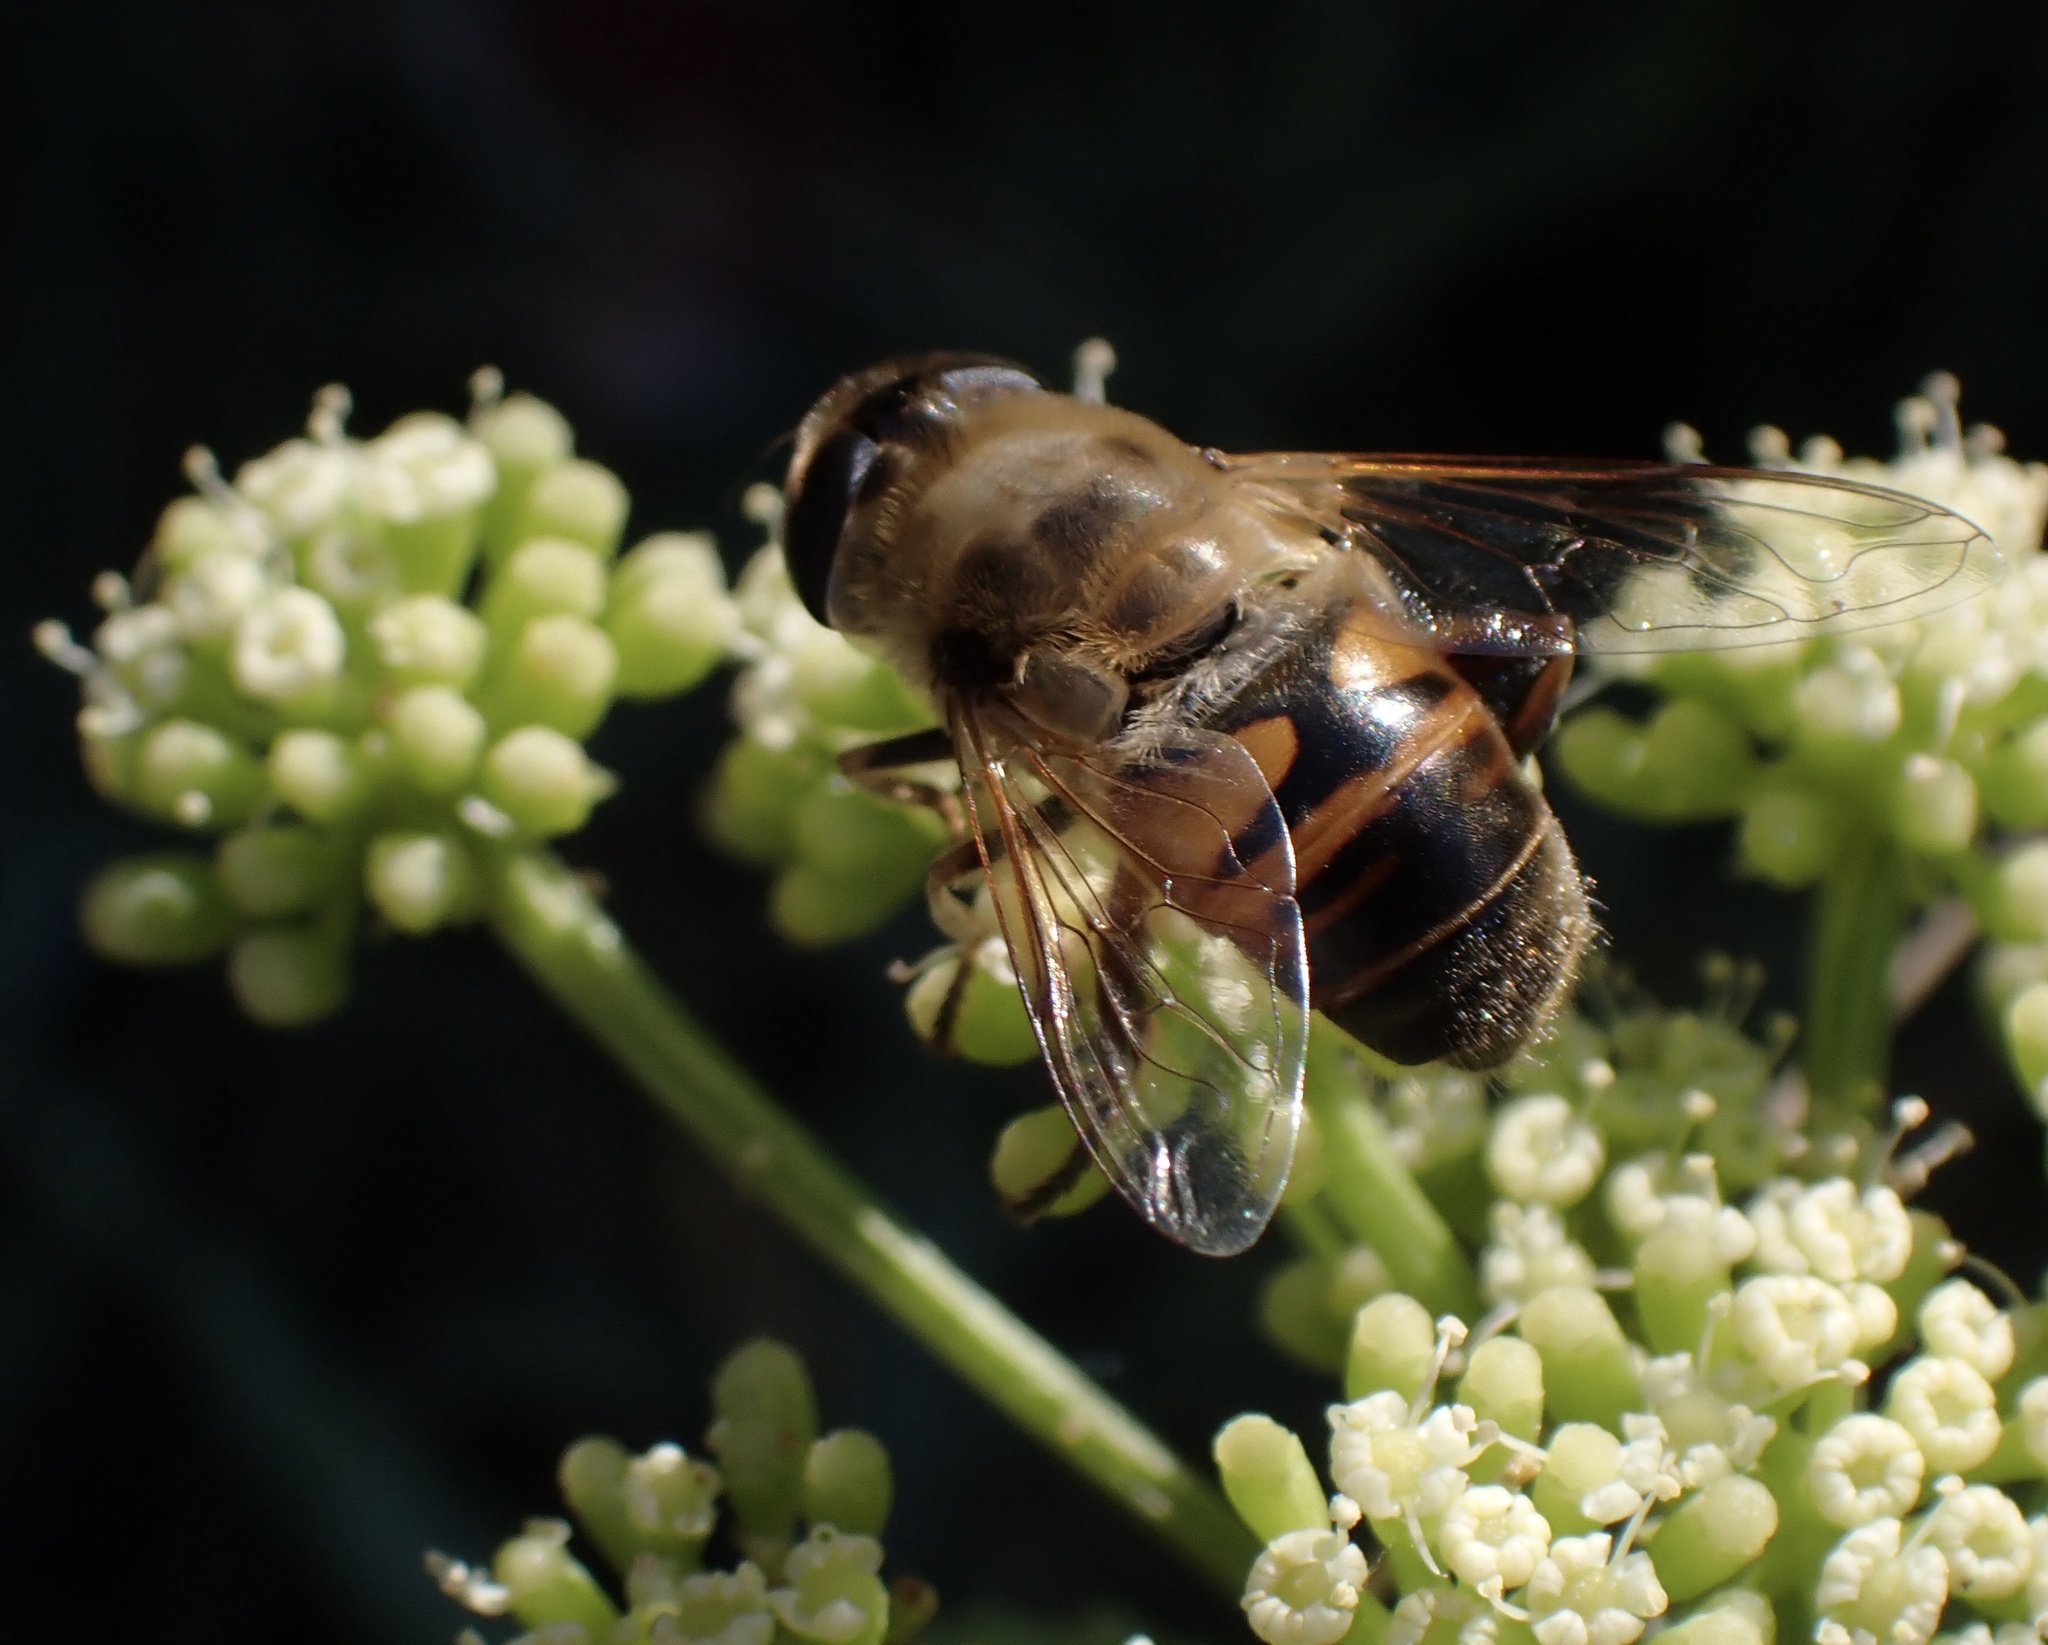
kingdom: Animalia
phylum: Arthropoda
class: Insecta
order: Diptera
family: Syrphidae
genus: Eristalis
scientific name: Eristalis tenax
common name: Drone fly
